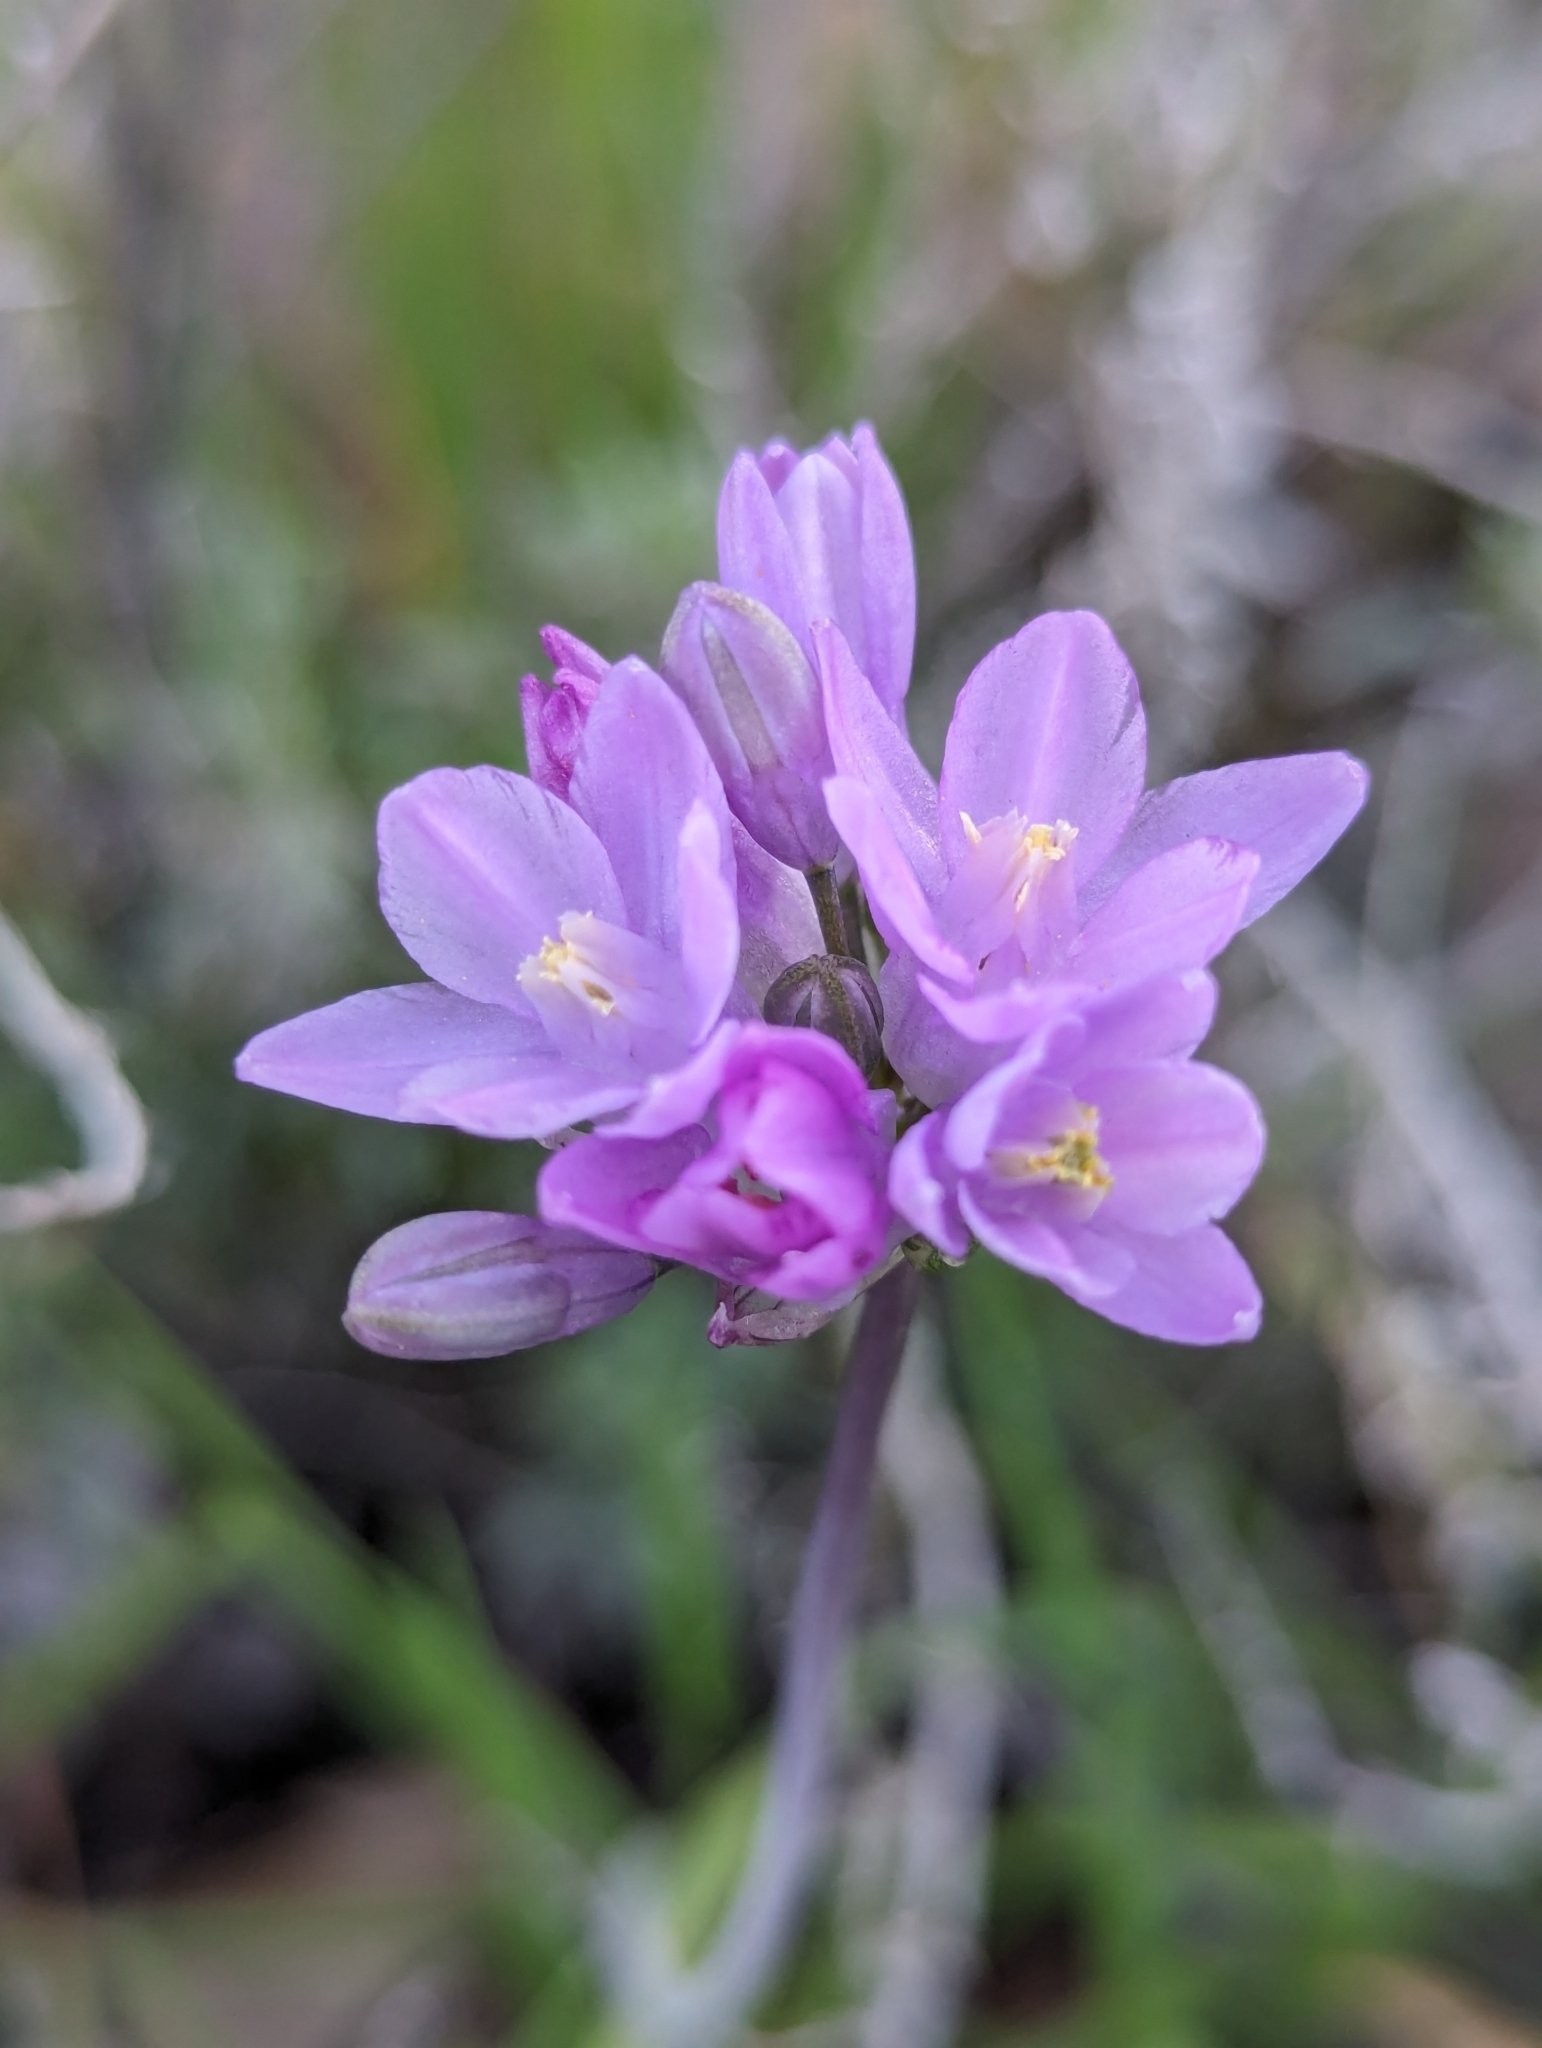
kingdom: Plantae
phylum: Tracheophyta
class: Liliopsida
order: Asparagales
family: Asparagaceae
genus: Dipterostemon
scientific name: Dipterostemon capitatus
